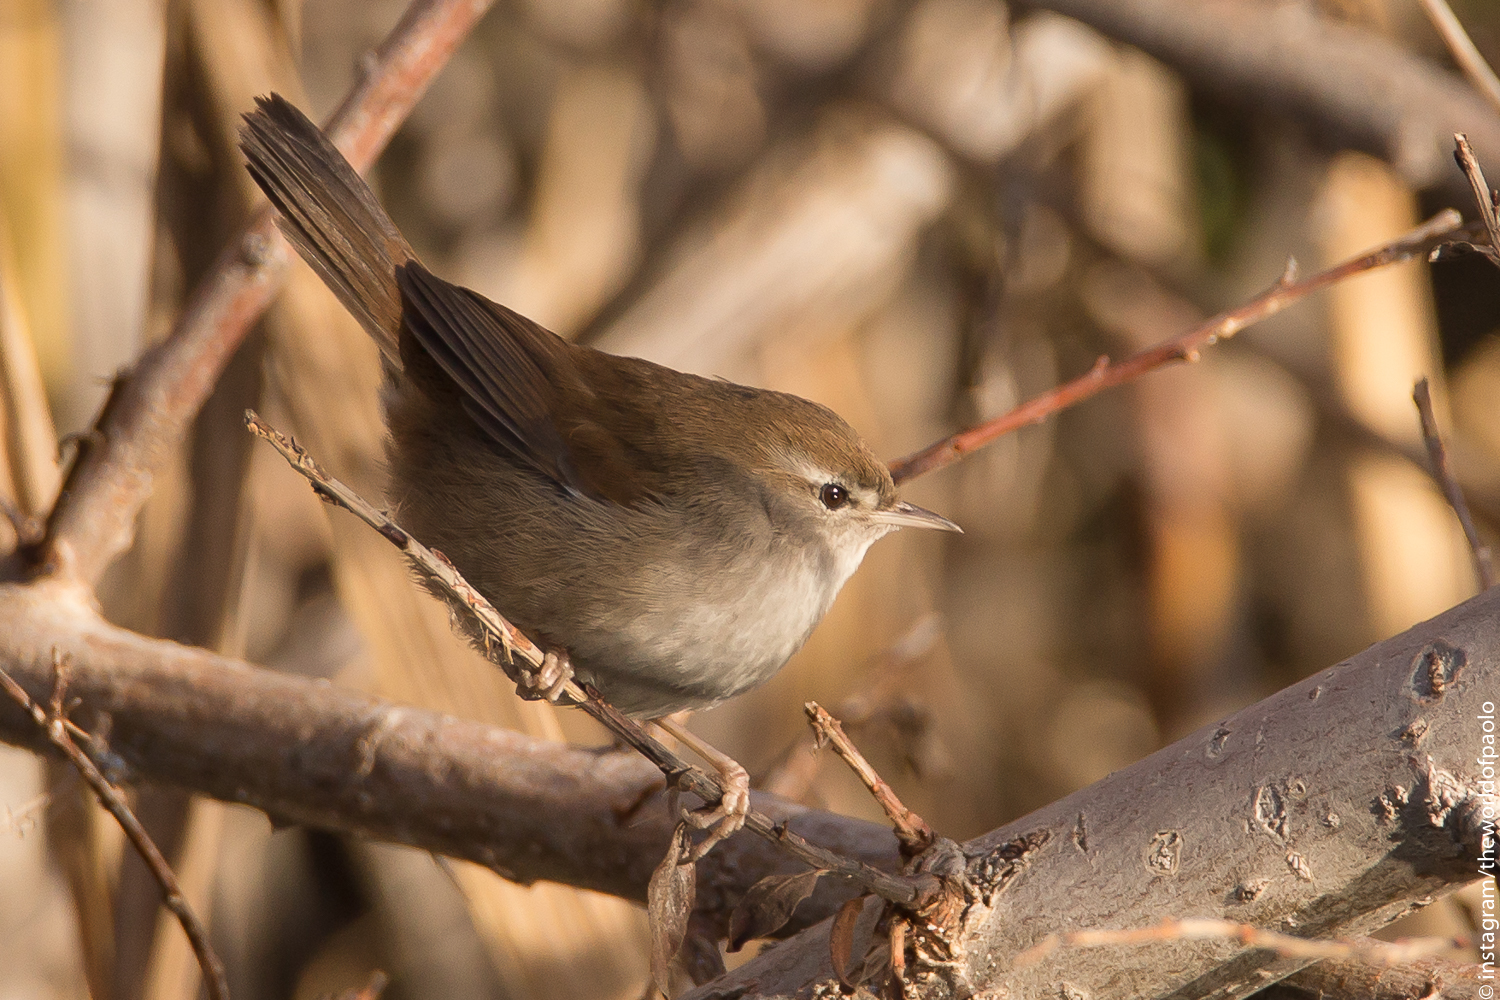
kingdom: Animalia
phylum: Chordata
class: Aves
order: Passeriformes
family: Cettiidae
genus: Cettia
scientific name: Cettia cetti
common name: Cetti's warbler
